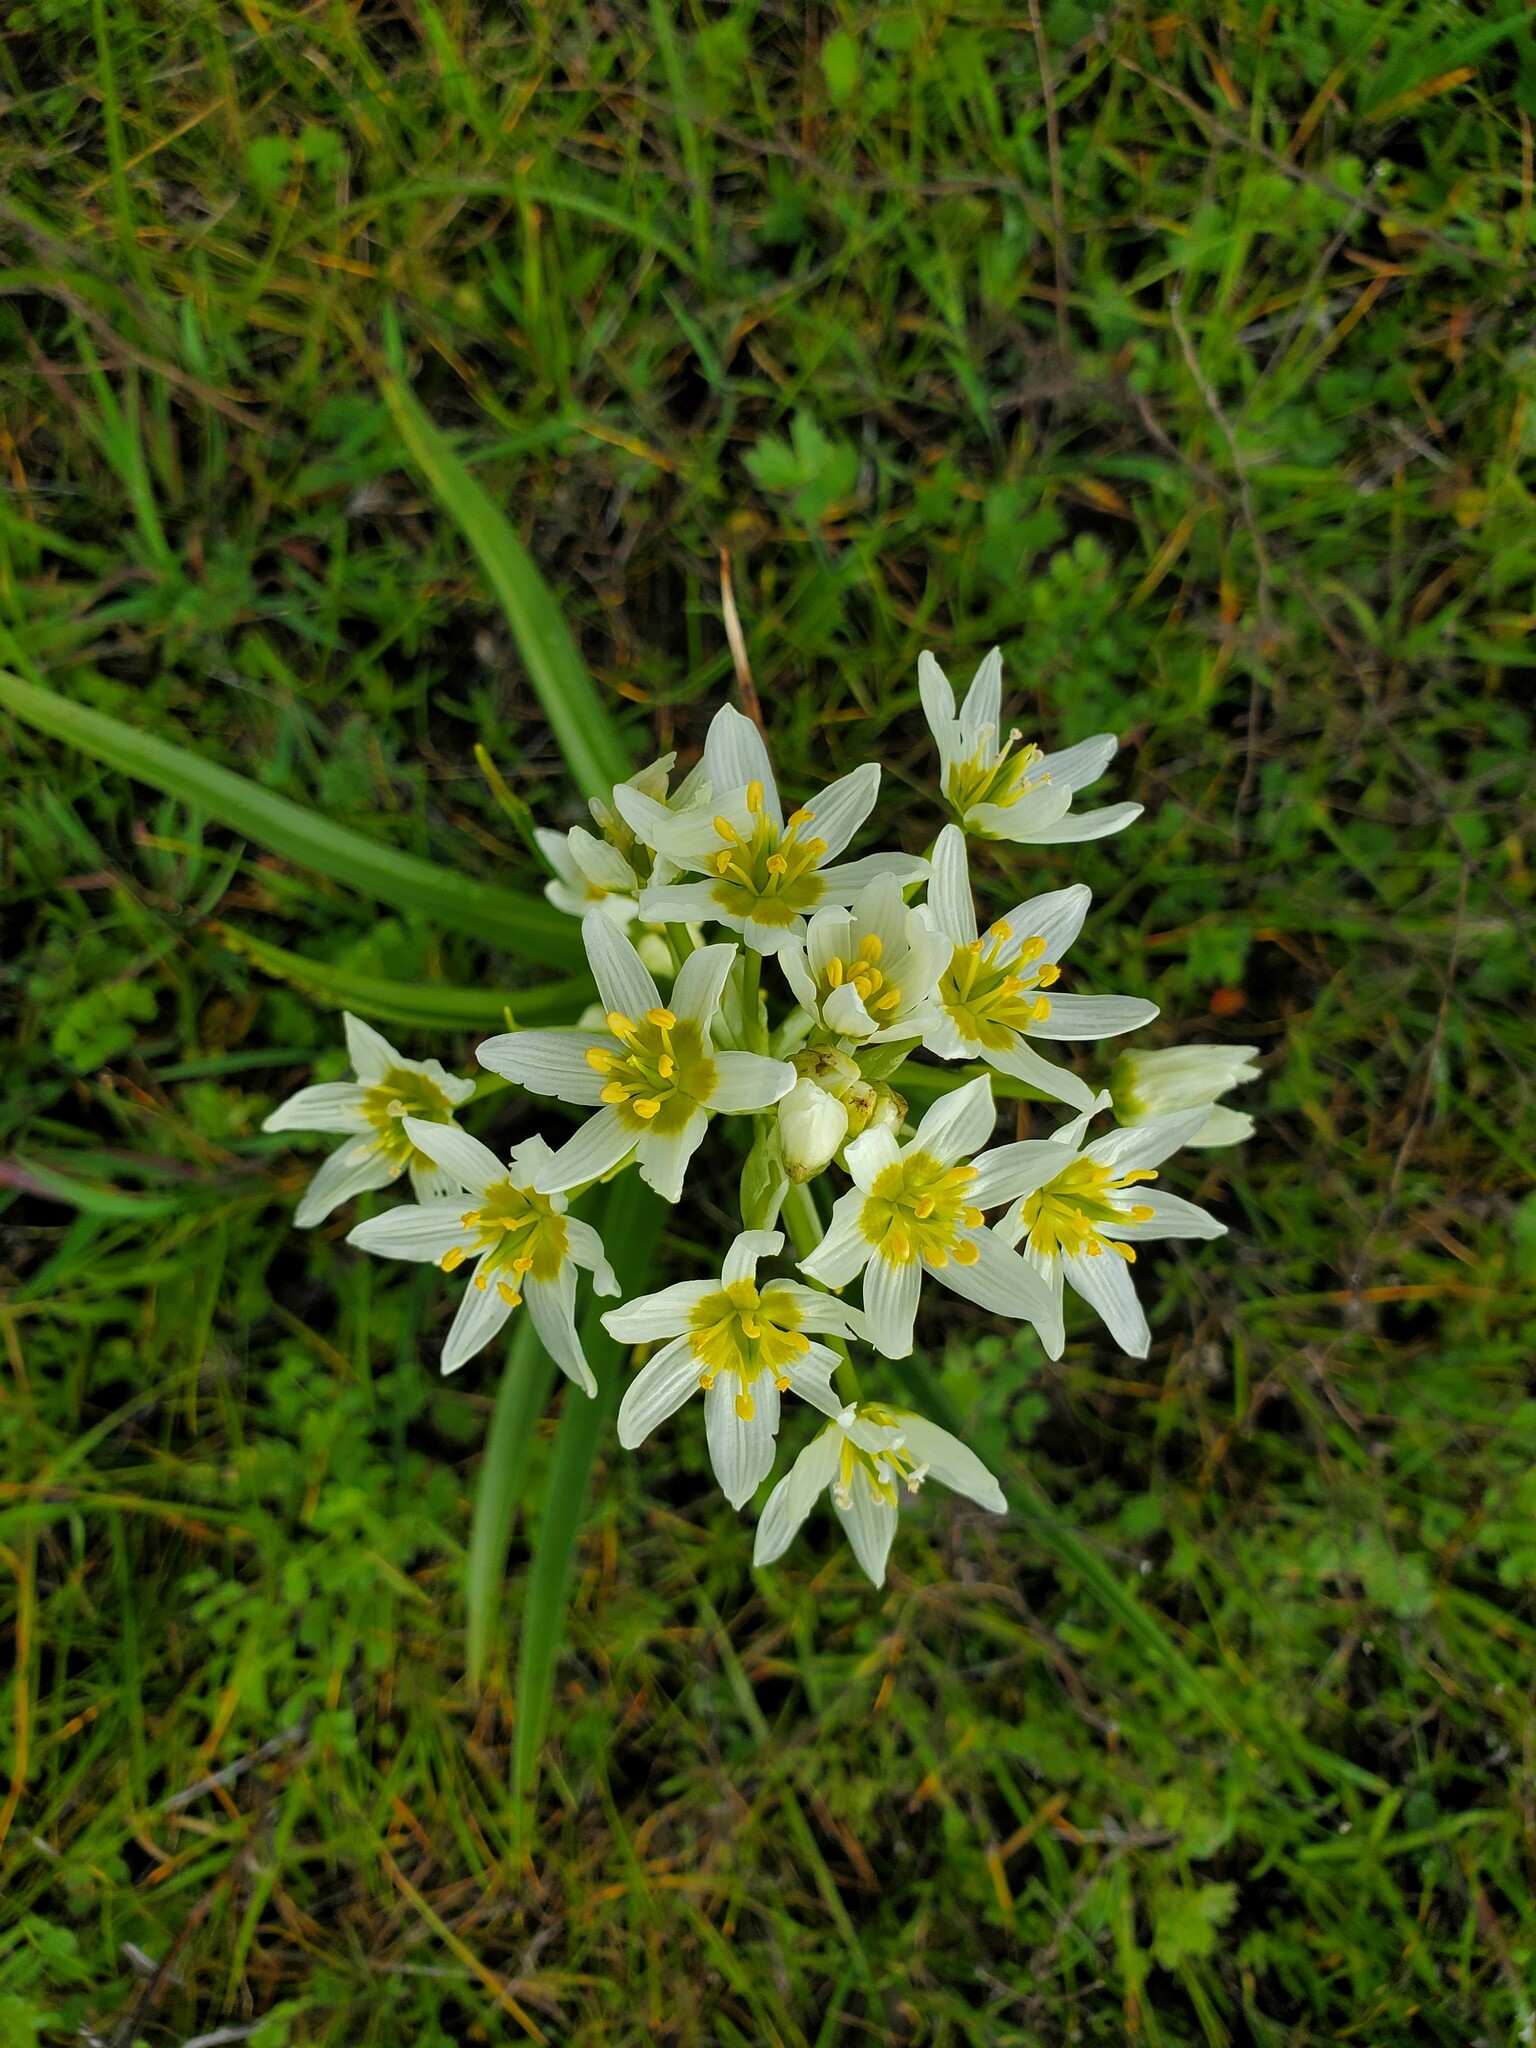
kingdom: Plantae
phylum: Tracheophyta
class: Liliopsida
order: Liliales
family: Melanthiaceae
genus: Toxicoscordion
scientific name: Toxicoscordion fremontii
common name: Fremont's death camas
